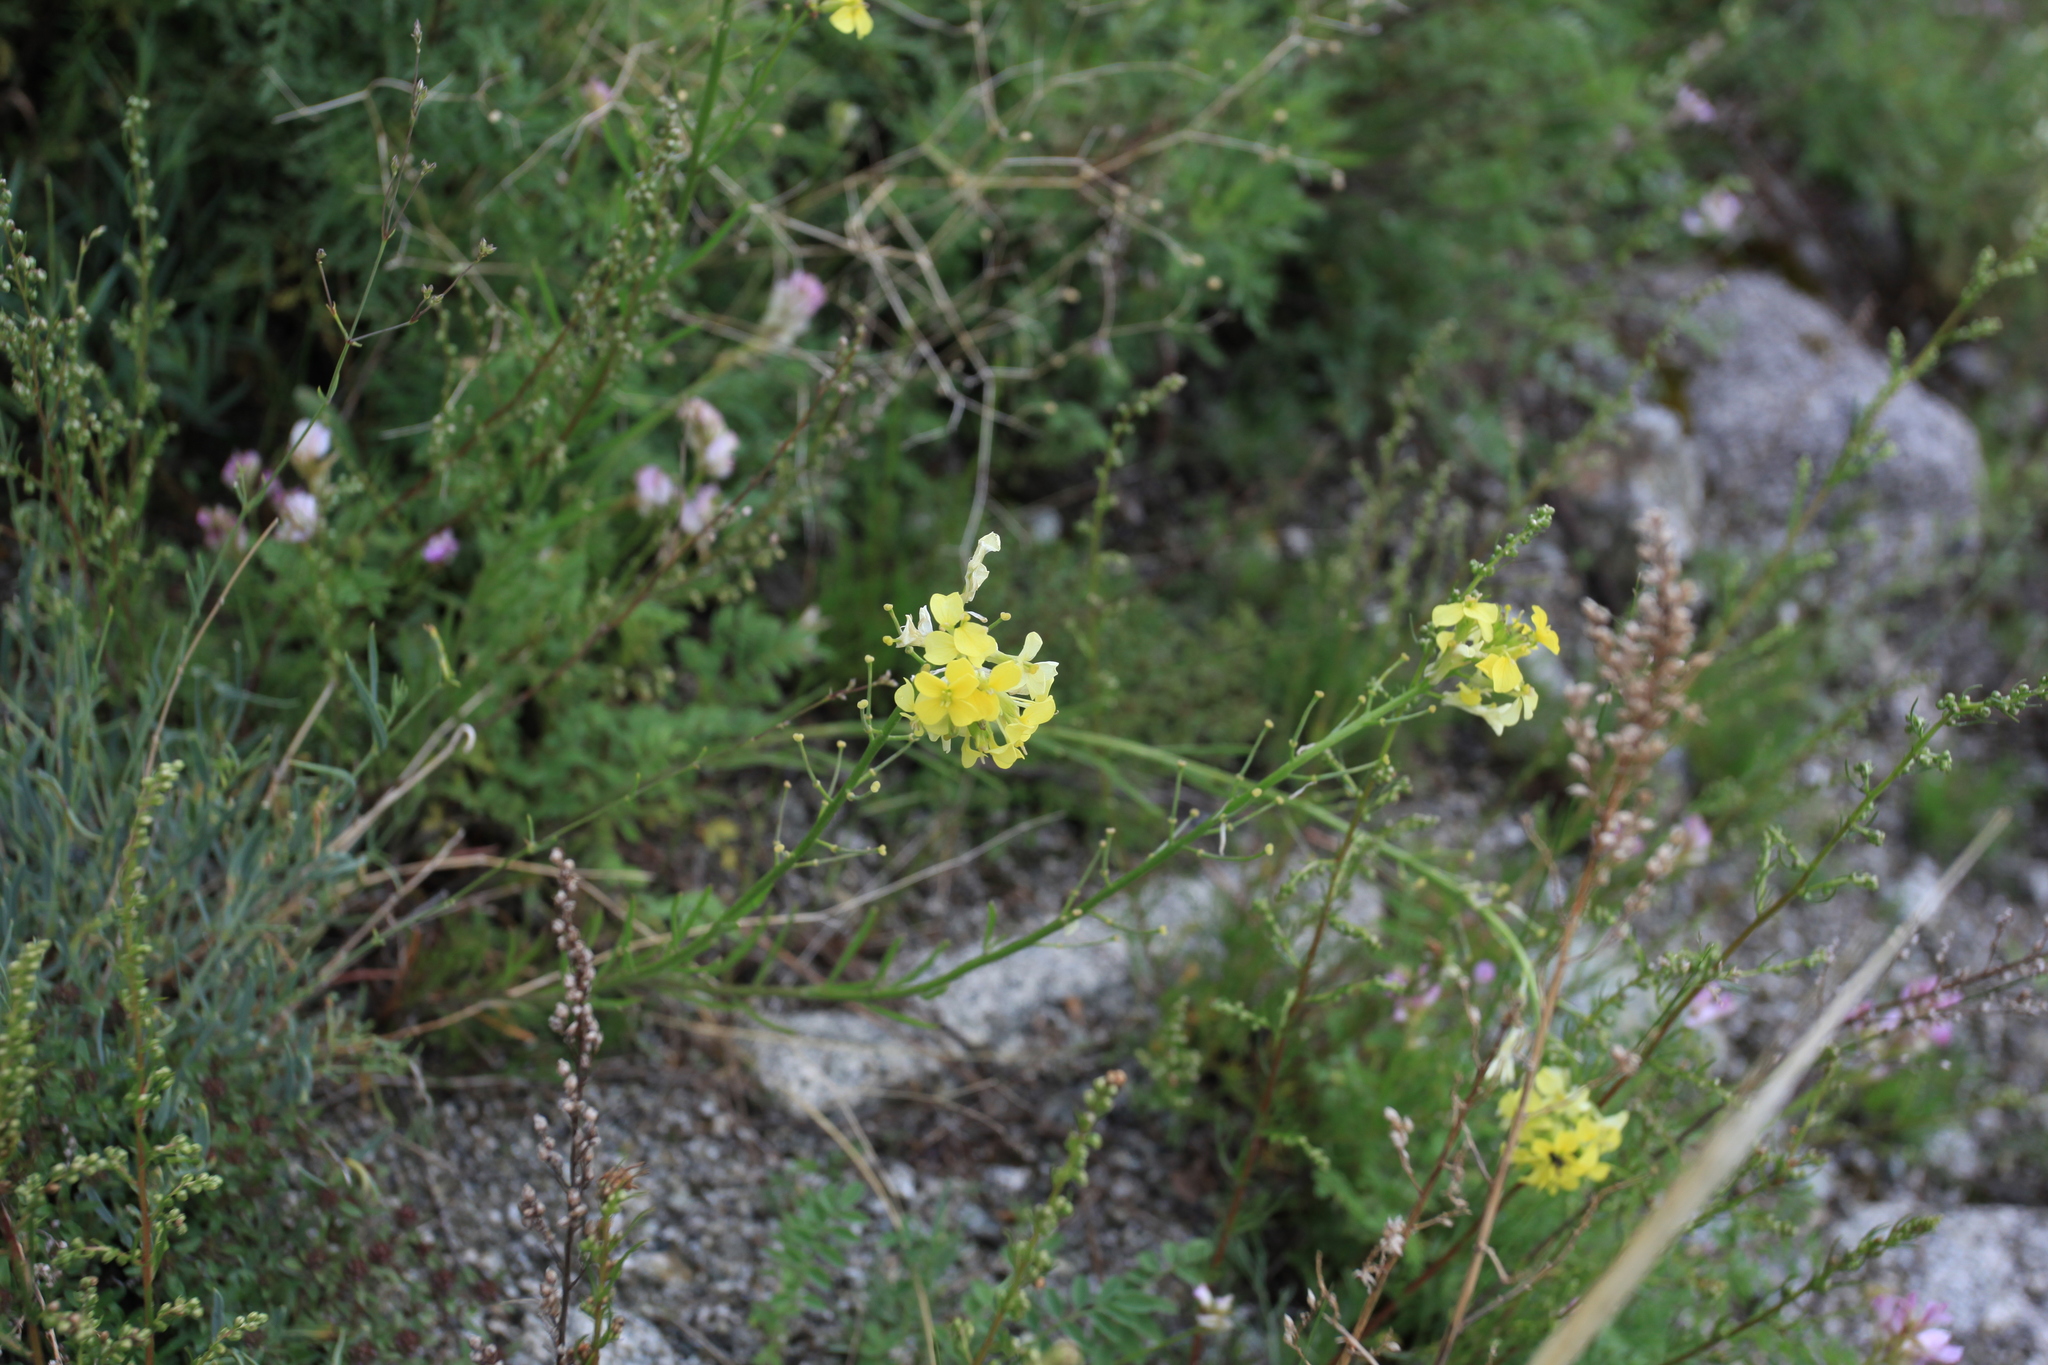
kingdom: Plantae
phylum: Tracheophyta
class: Magnoliopsida
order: Brassicales
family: Brassicaceae
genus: Erysimum
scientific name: Erysimum flavum
